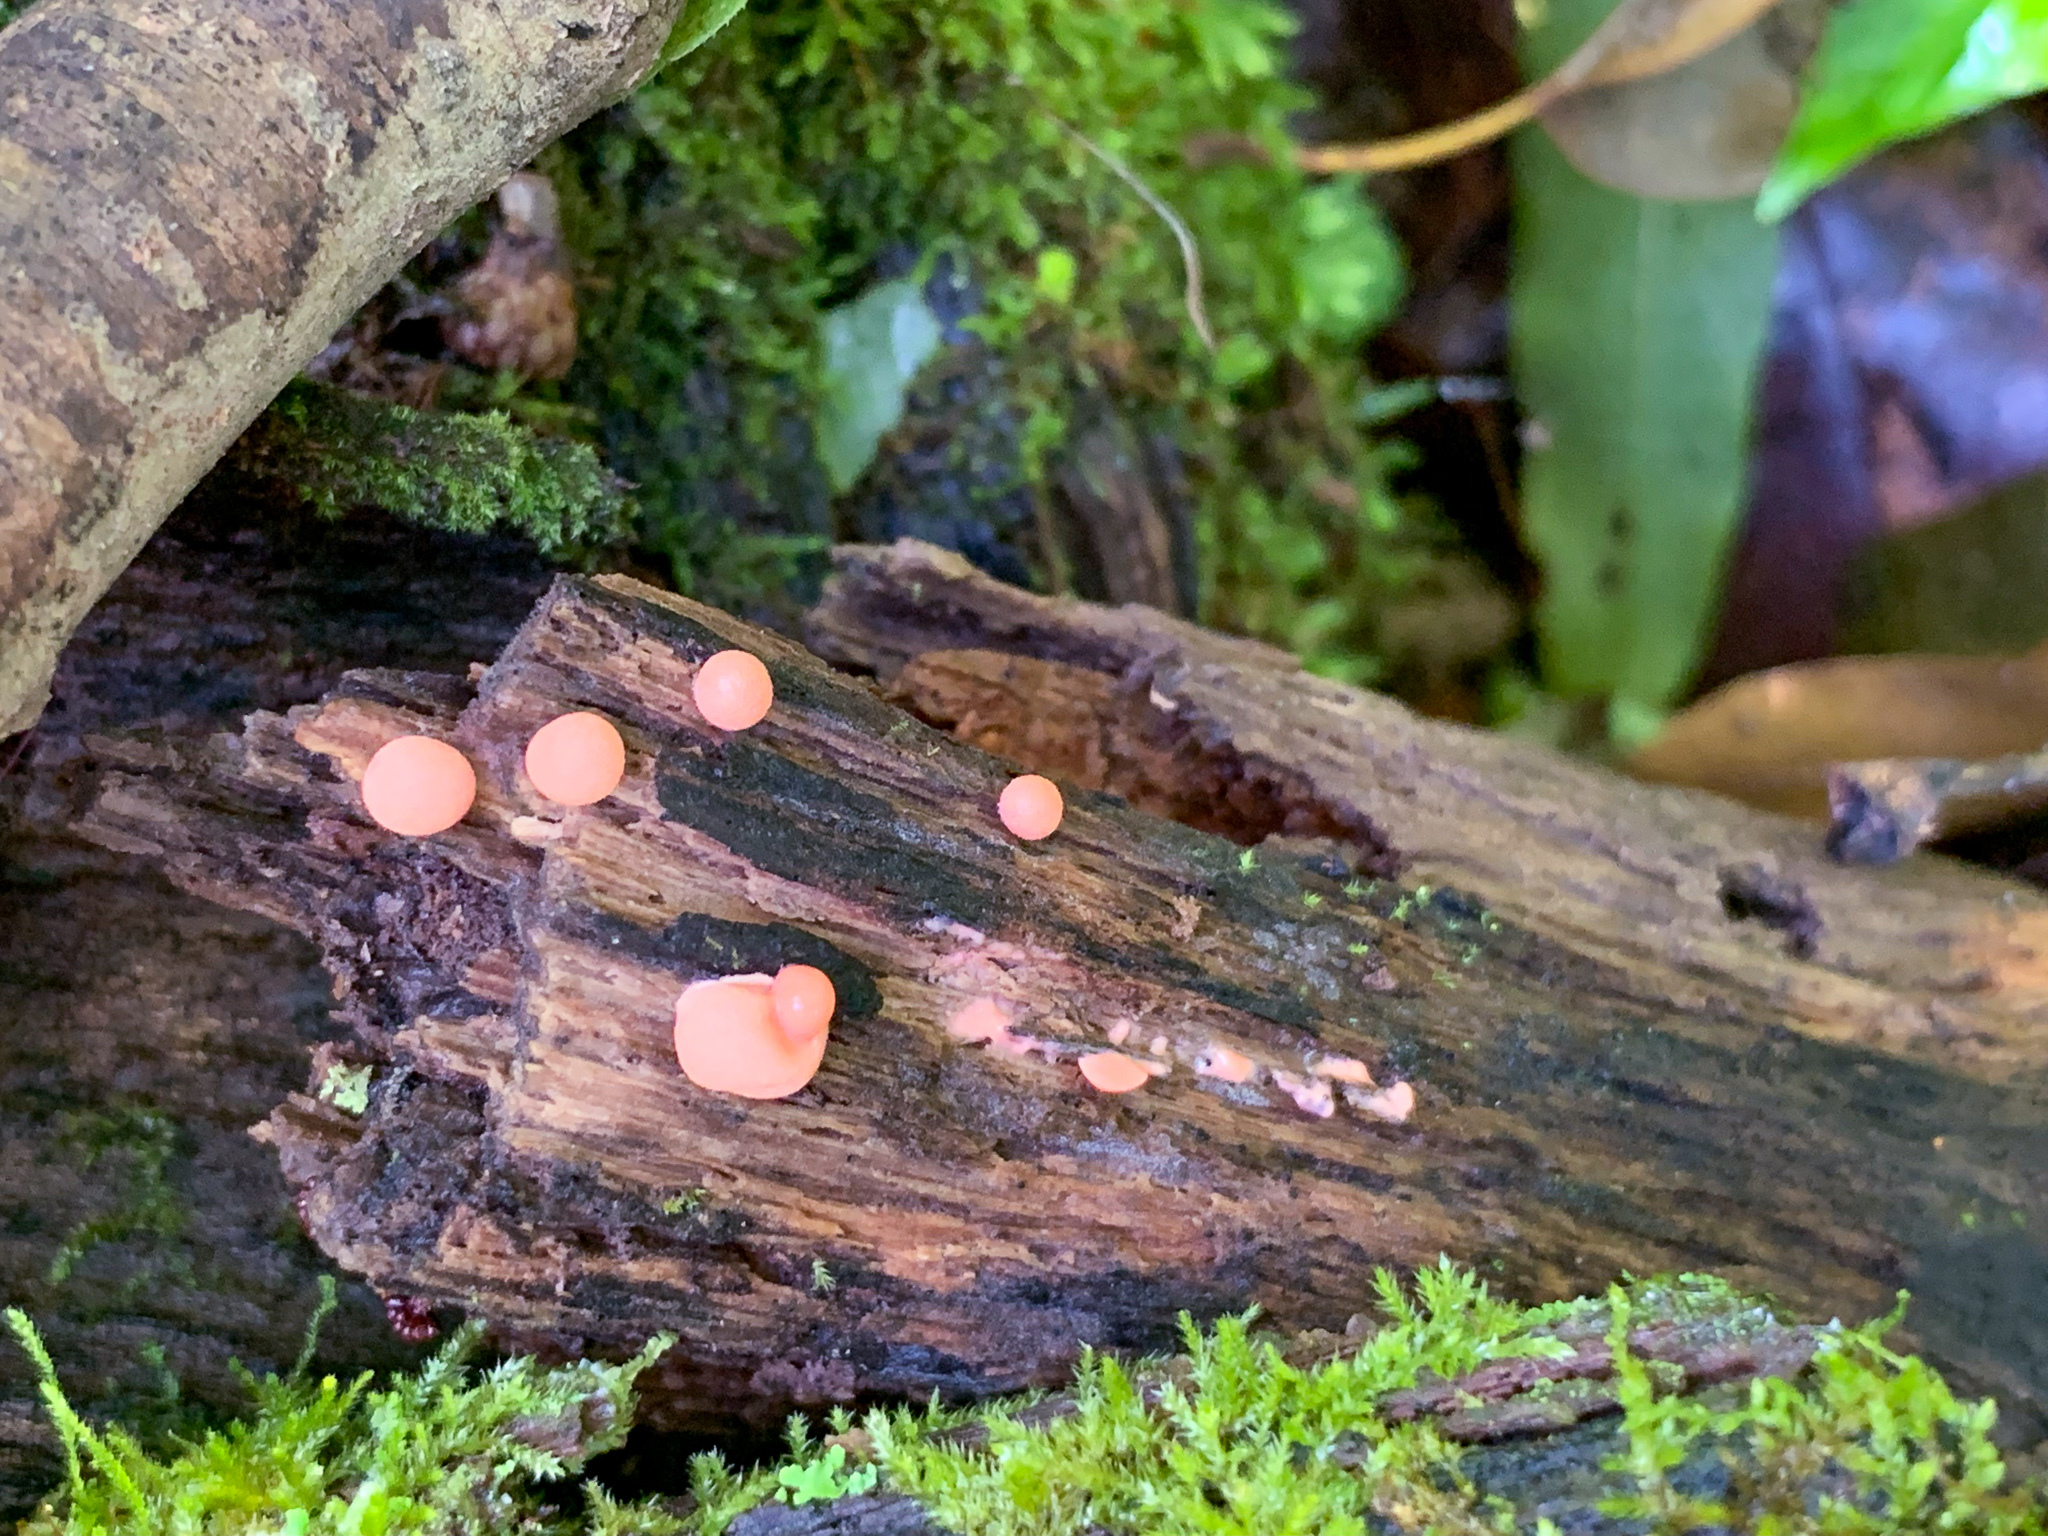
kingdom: Protozoa
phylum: Mycetozoa
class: Myxomycetes
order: Cribrariales
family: Tubiferaceae
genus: Lycogala
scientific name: Lycogala epidendrum
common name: Wolf's milk
